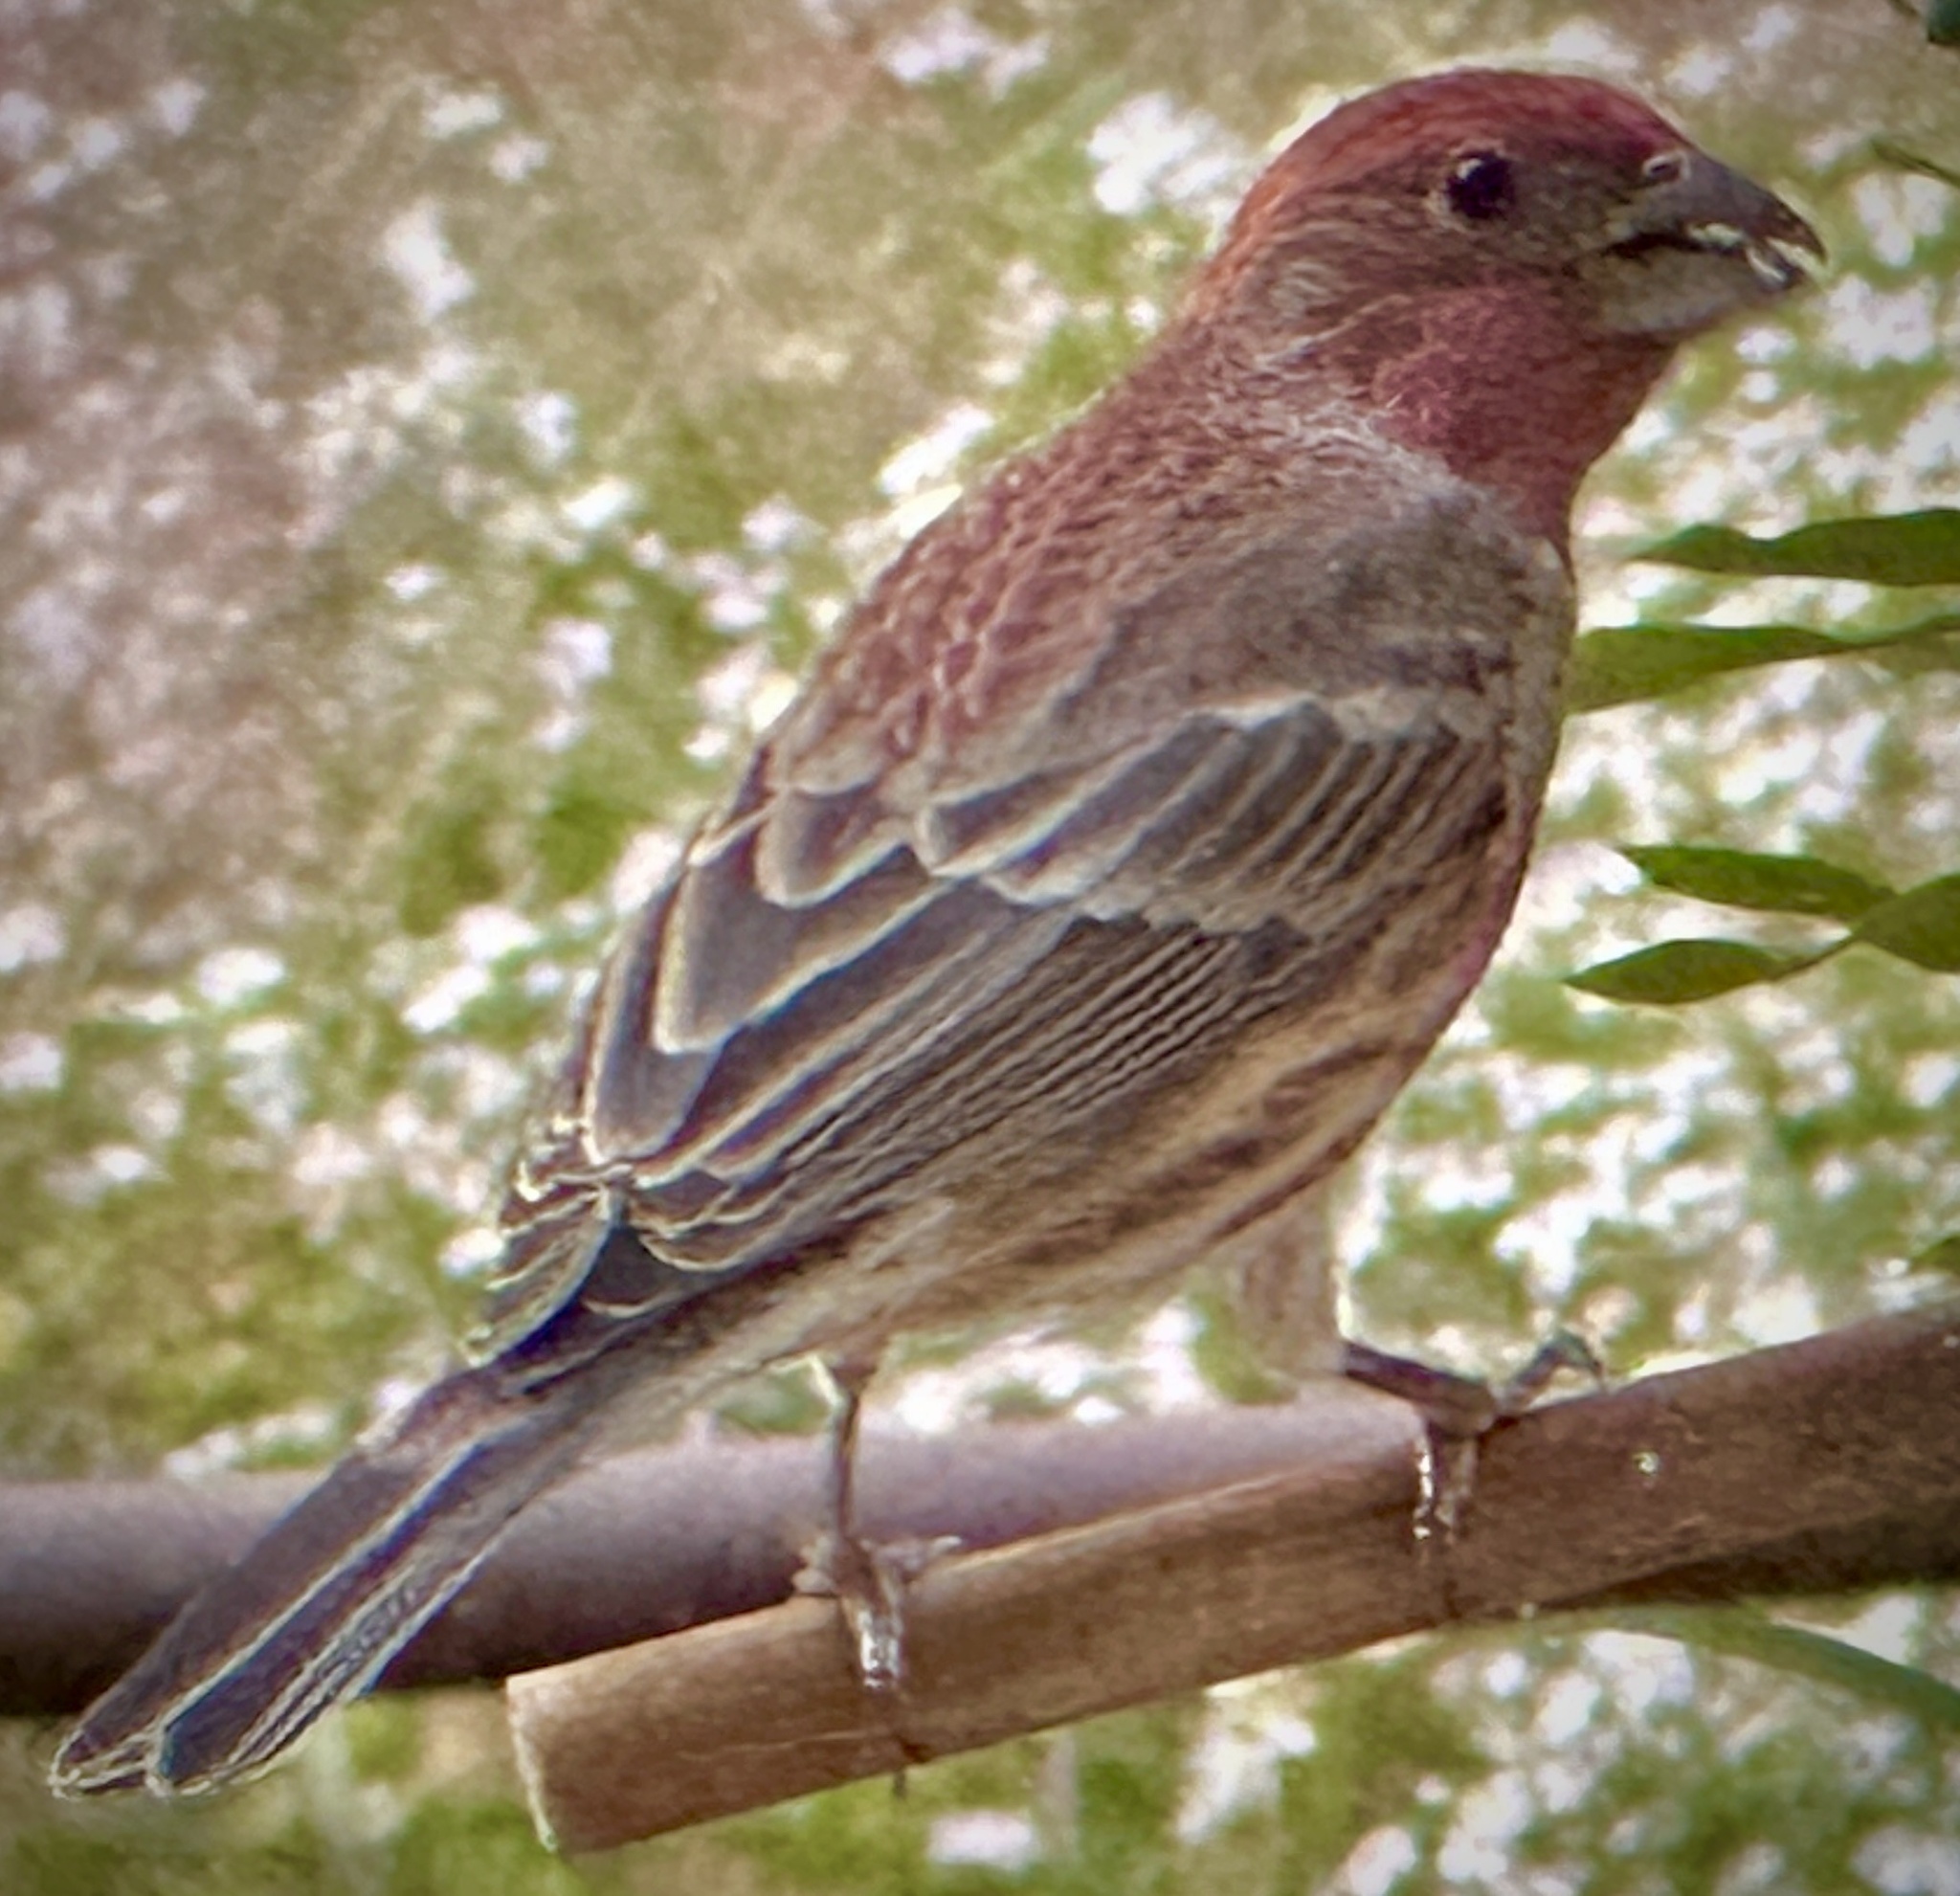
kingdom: Animalia
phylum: Chordata
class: Aves
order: Passeriformes
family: Fringillidae
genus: Haemorhous
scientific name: Haemorhous mexicanus
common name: House finch
